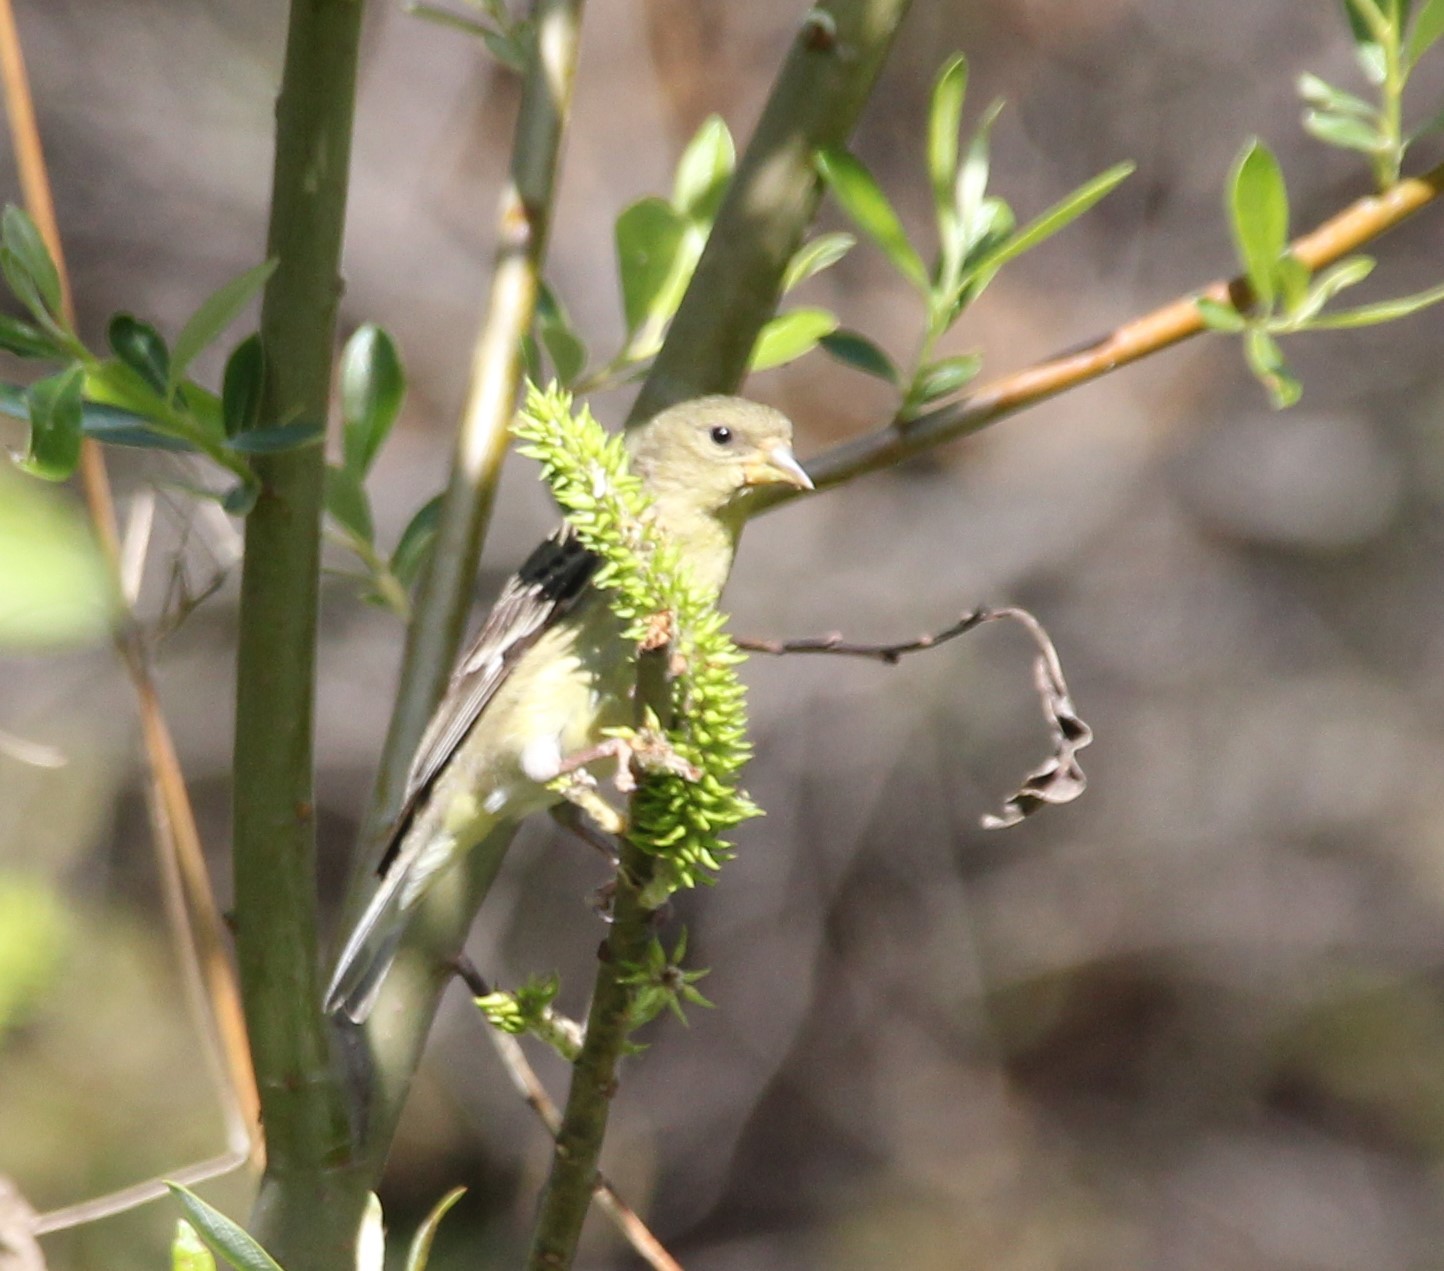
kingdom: Animalia
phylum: Chordata
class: Aves
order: Passeriformes
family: Fringillidae
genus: Spinus
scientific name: Spinus psaltria
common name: Lesser goldfinch
